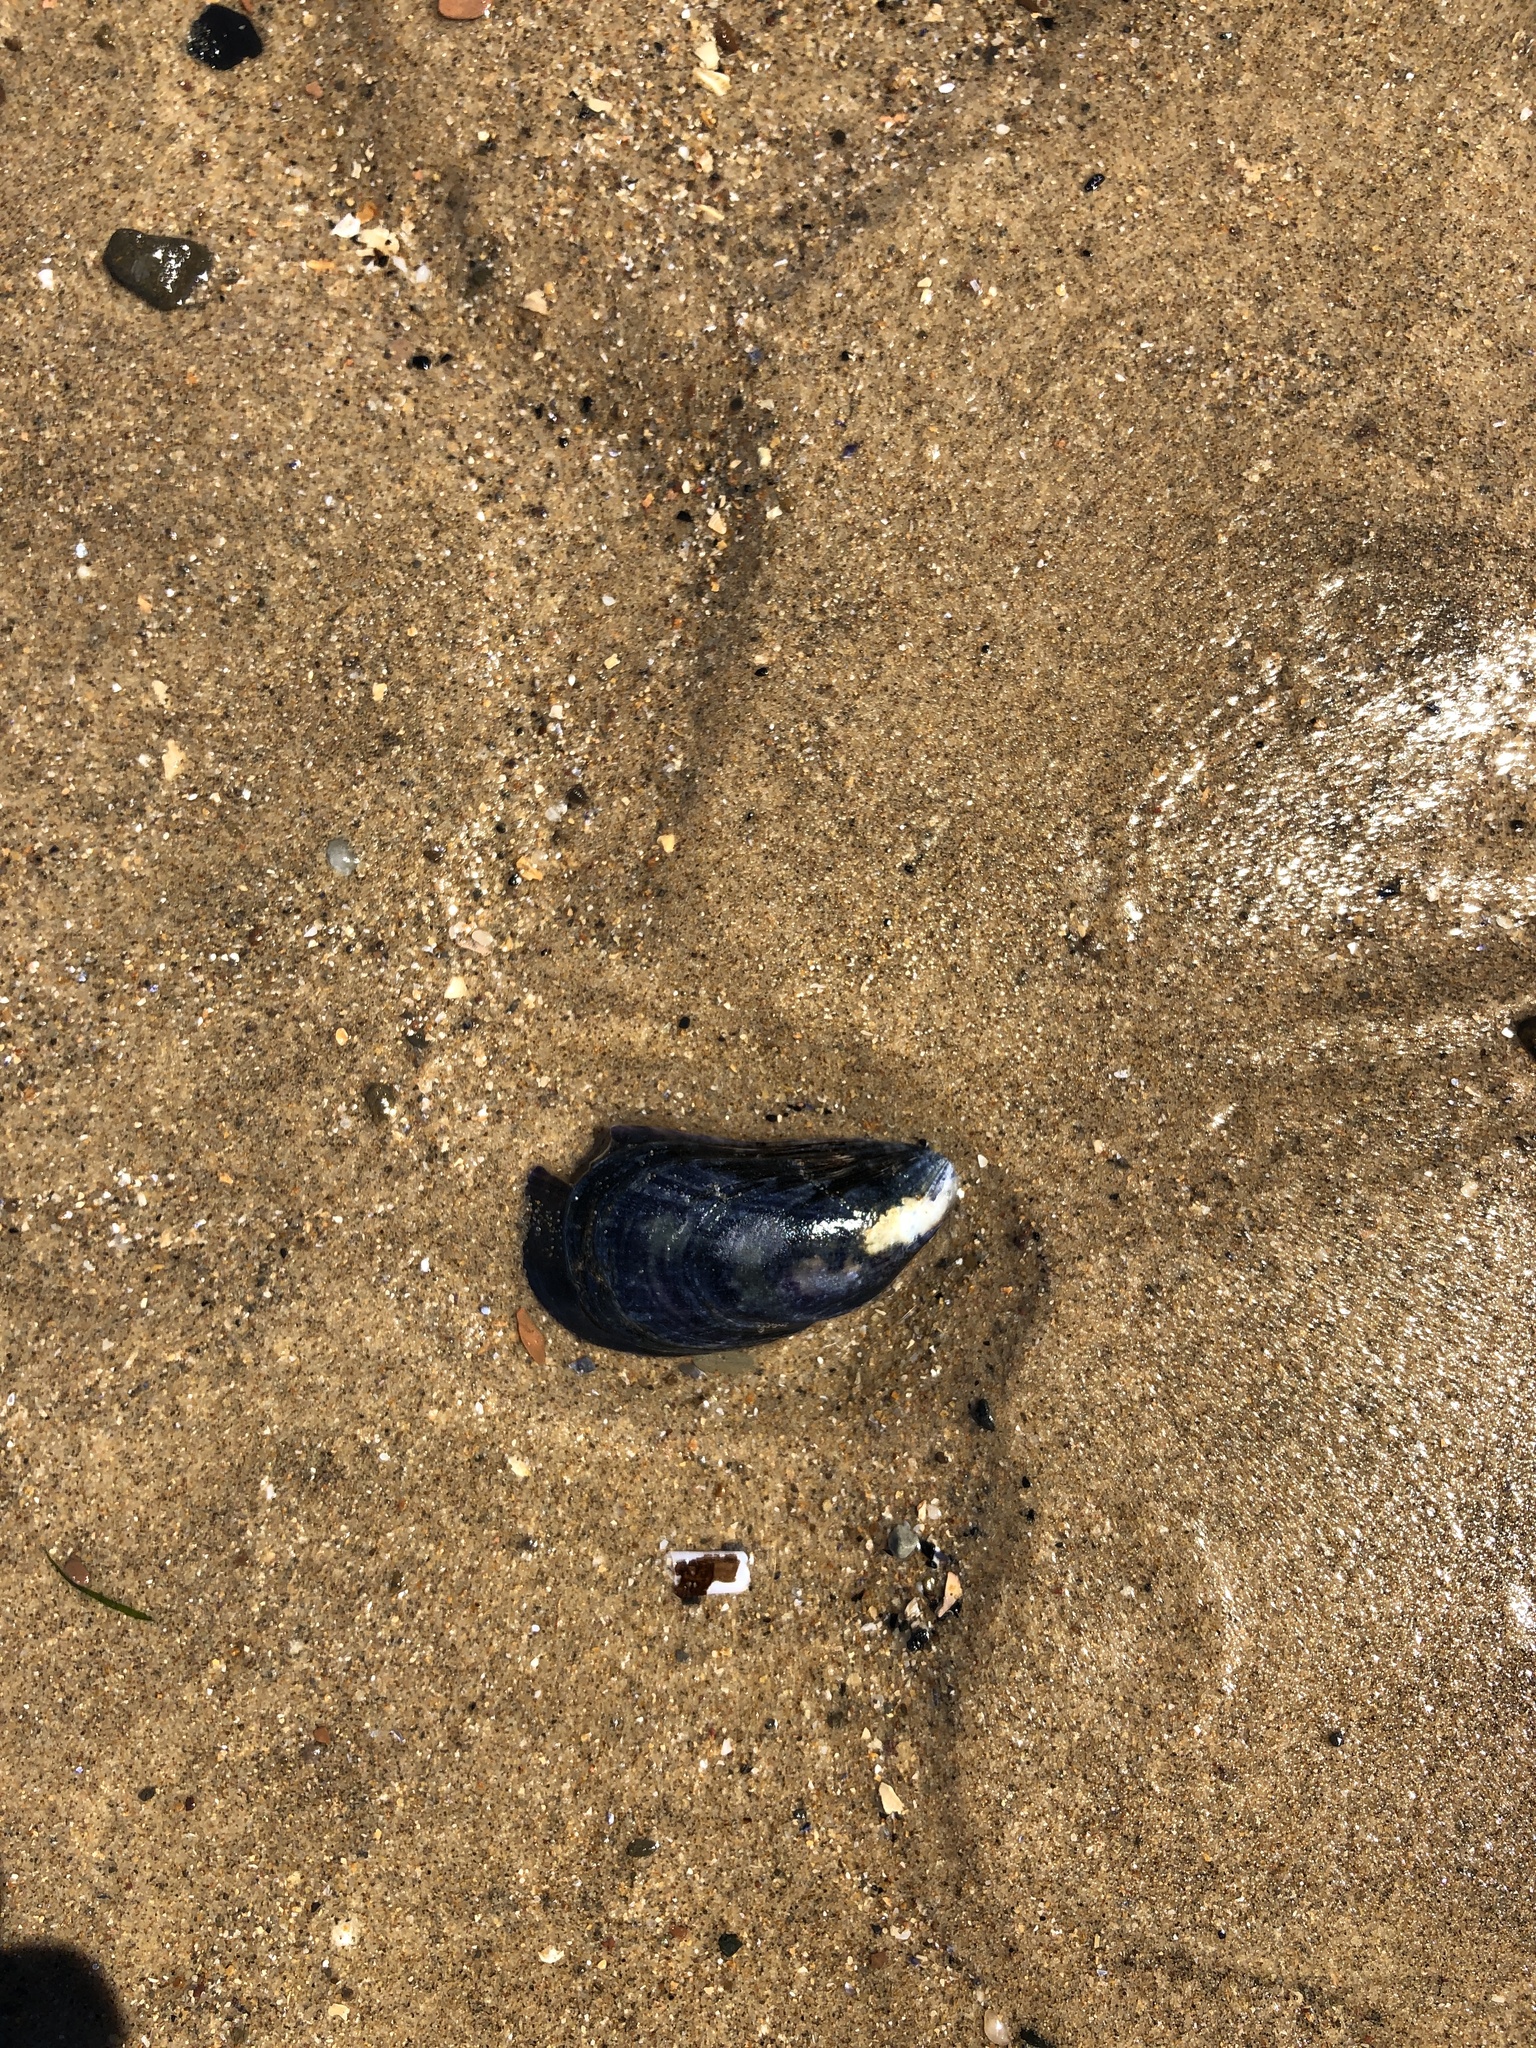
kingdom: Animalia
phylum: Mollusca
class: Bivalvia
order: Mytilida
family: Mytilidae
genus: Mytilus
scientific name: Mytilus edulis
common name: Blue mussel
